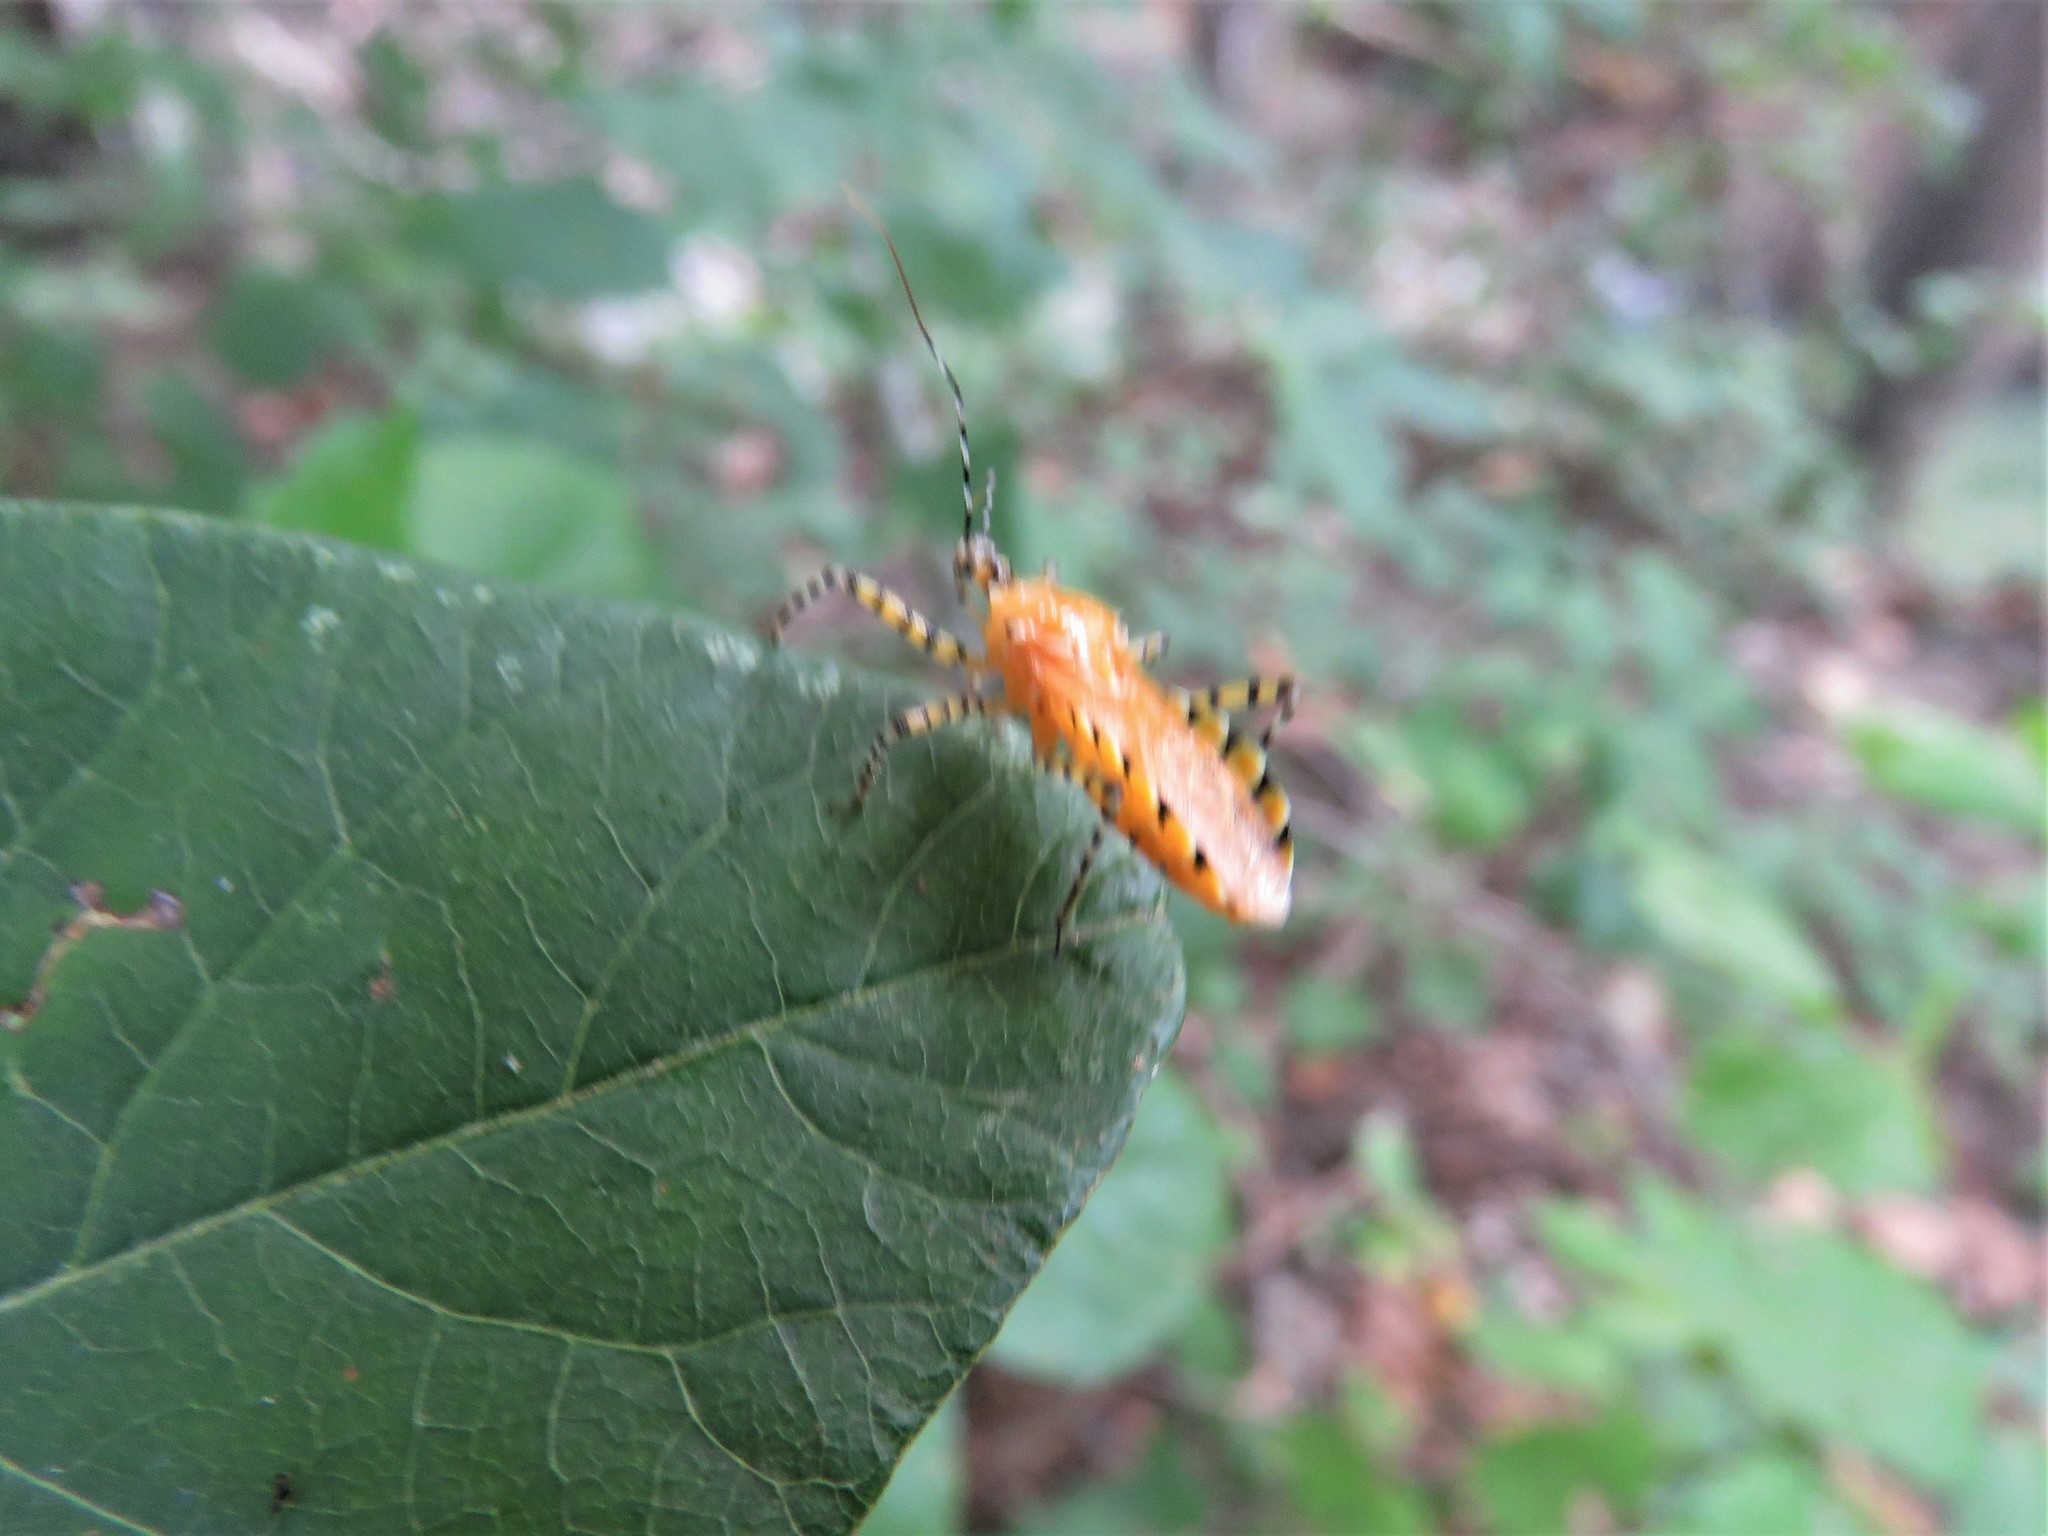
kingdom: Animalia
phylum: Arthropoda
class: Insecta
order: Hemiptera
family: Reduviidae
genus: Pselliopus
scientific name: Pselliopus barberi
